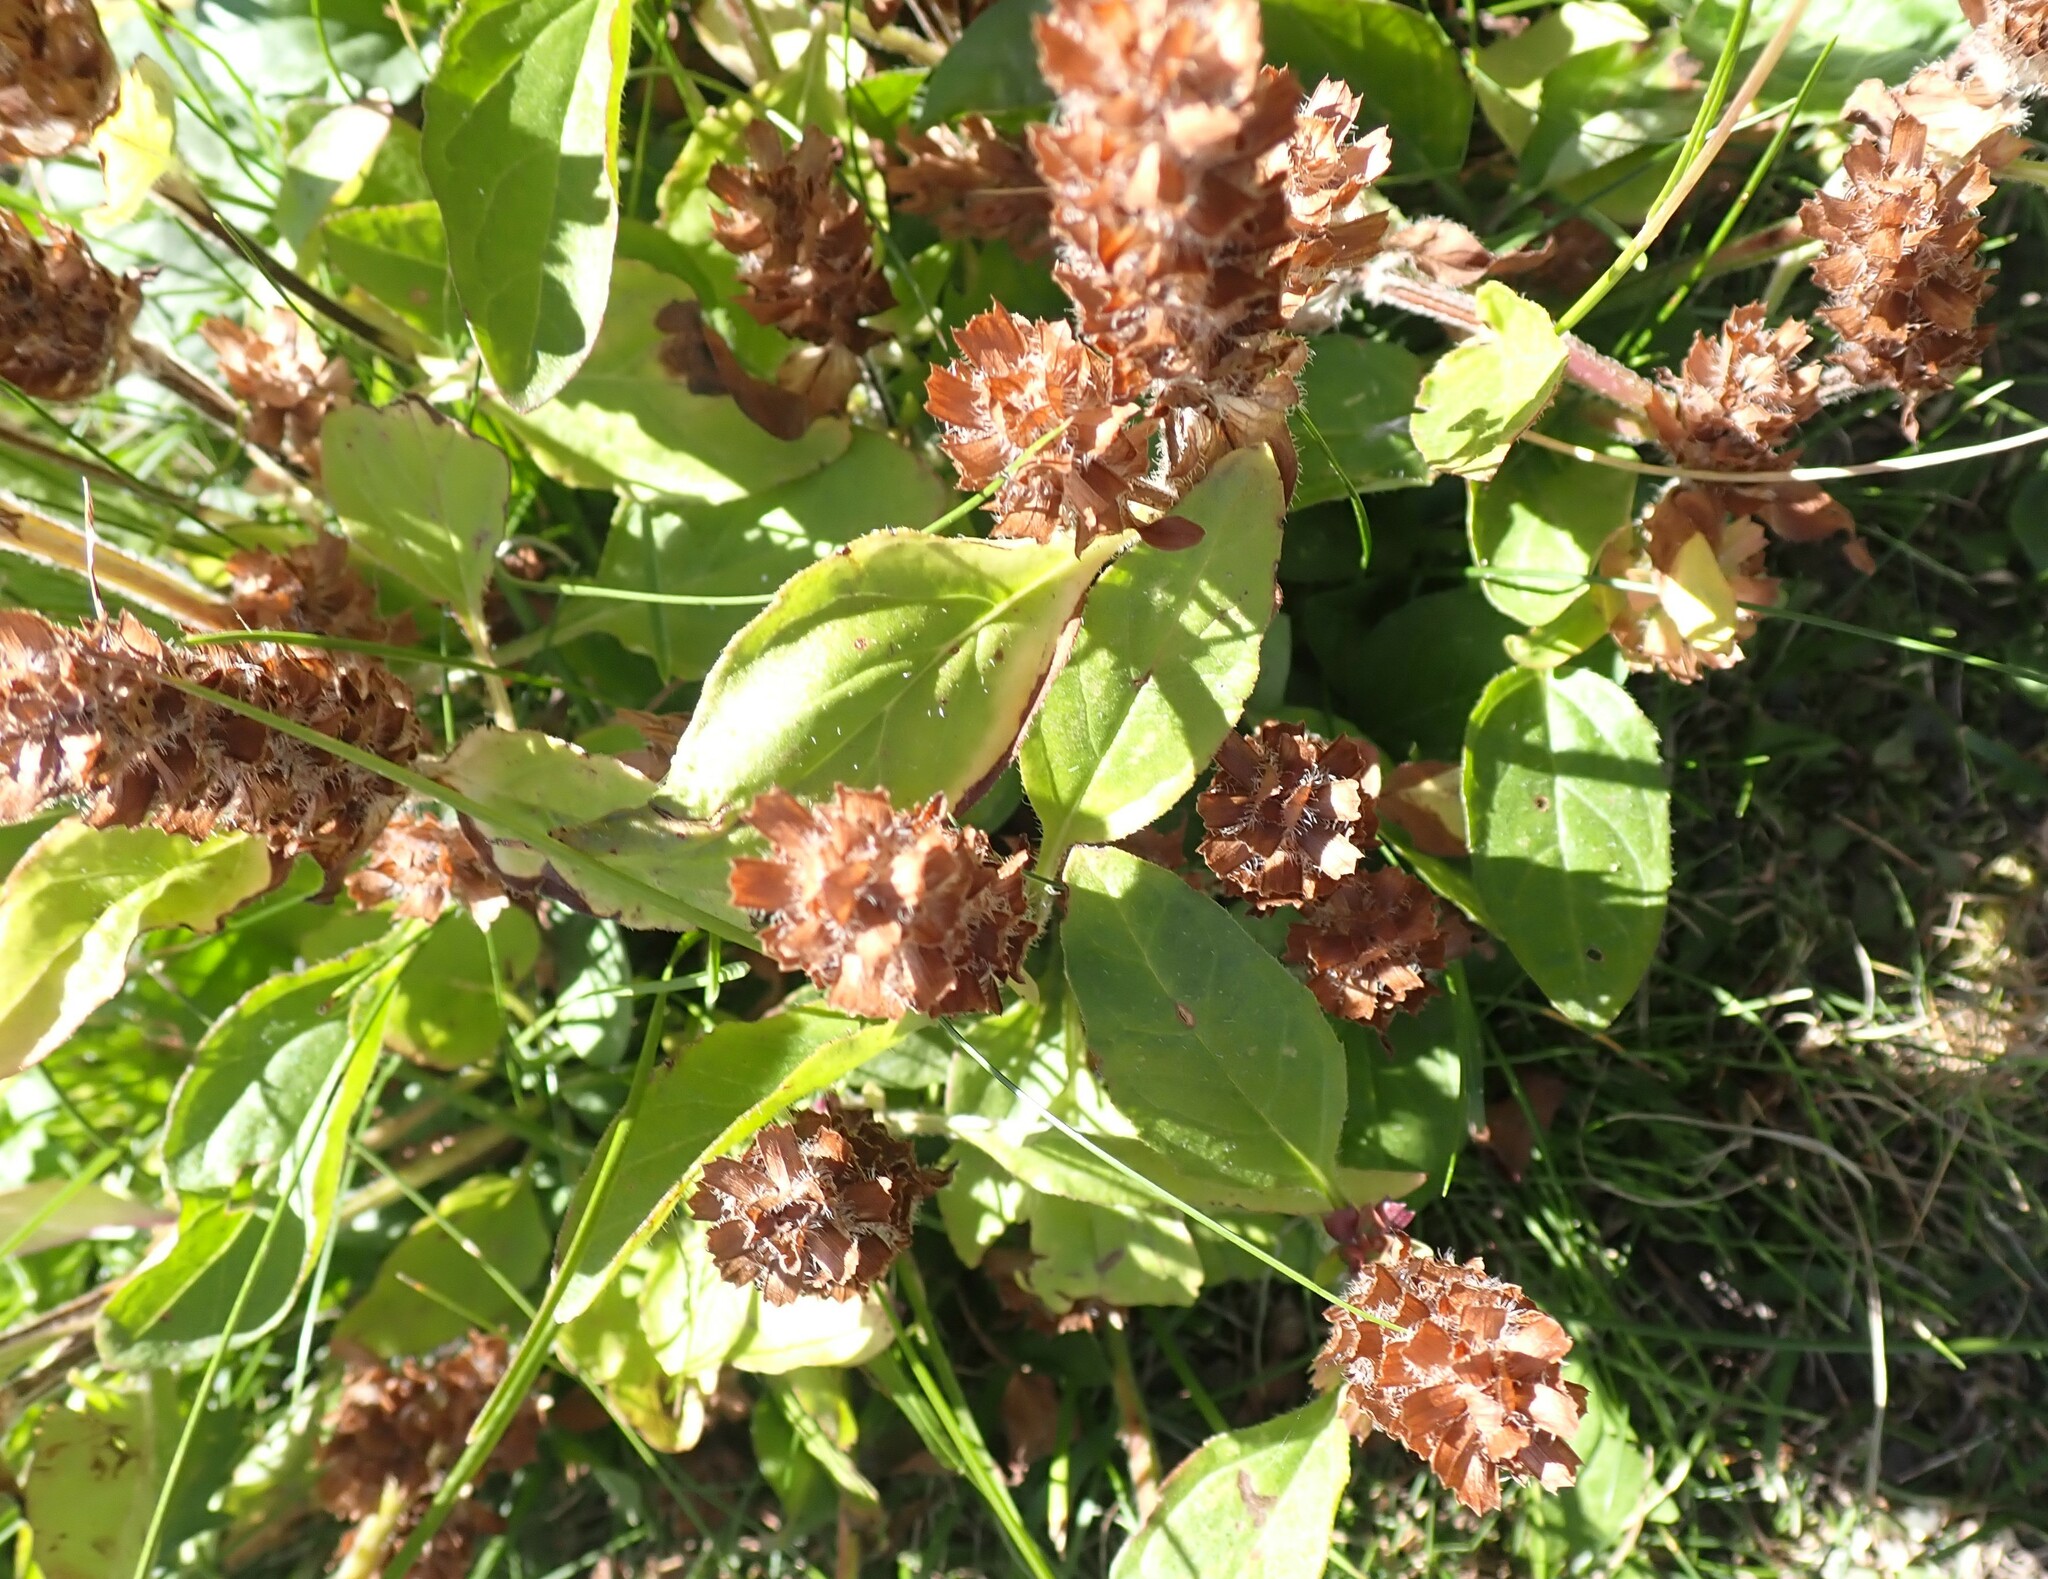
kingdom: Plantae
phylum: Tracheophyta
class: Magnoliopsida
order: Lamiales
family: Lamiaceae
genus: Prunella
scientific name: Prunella vulgaris
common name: Heal-all
